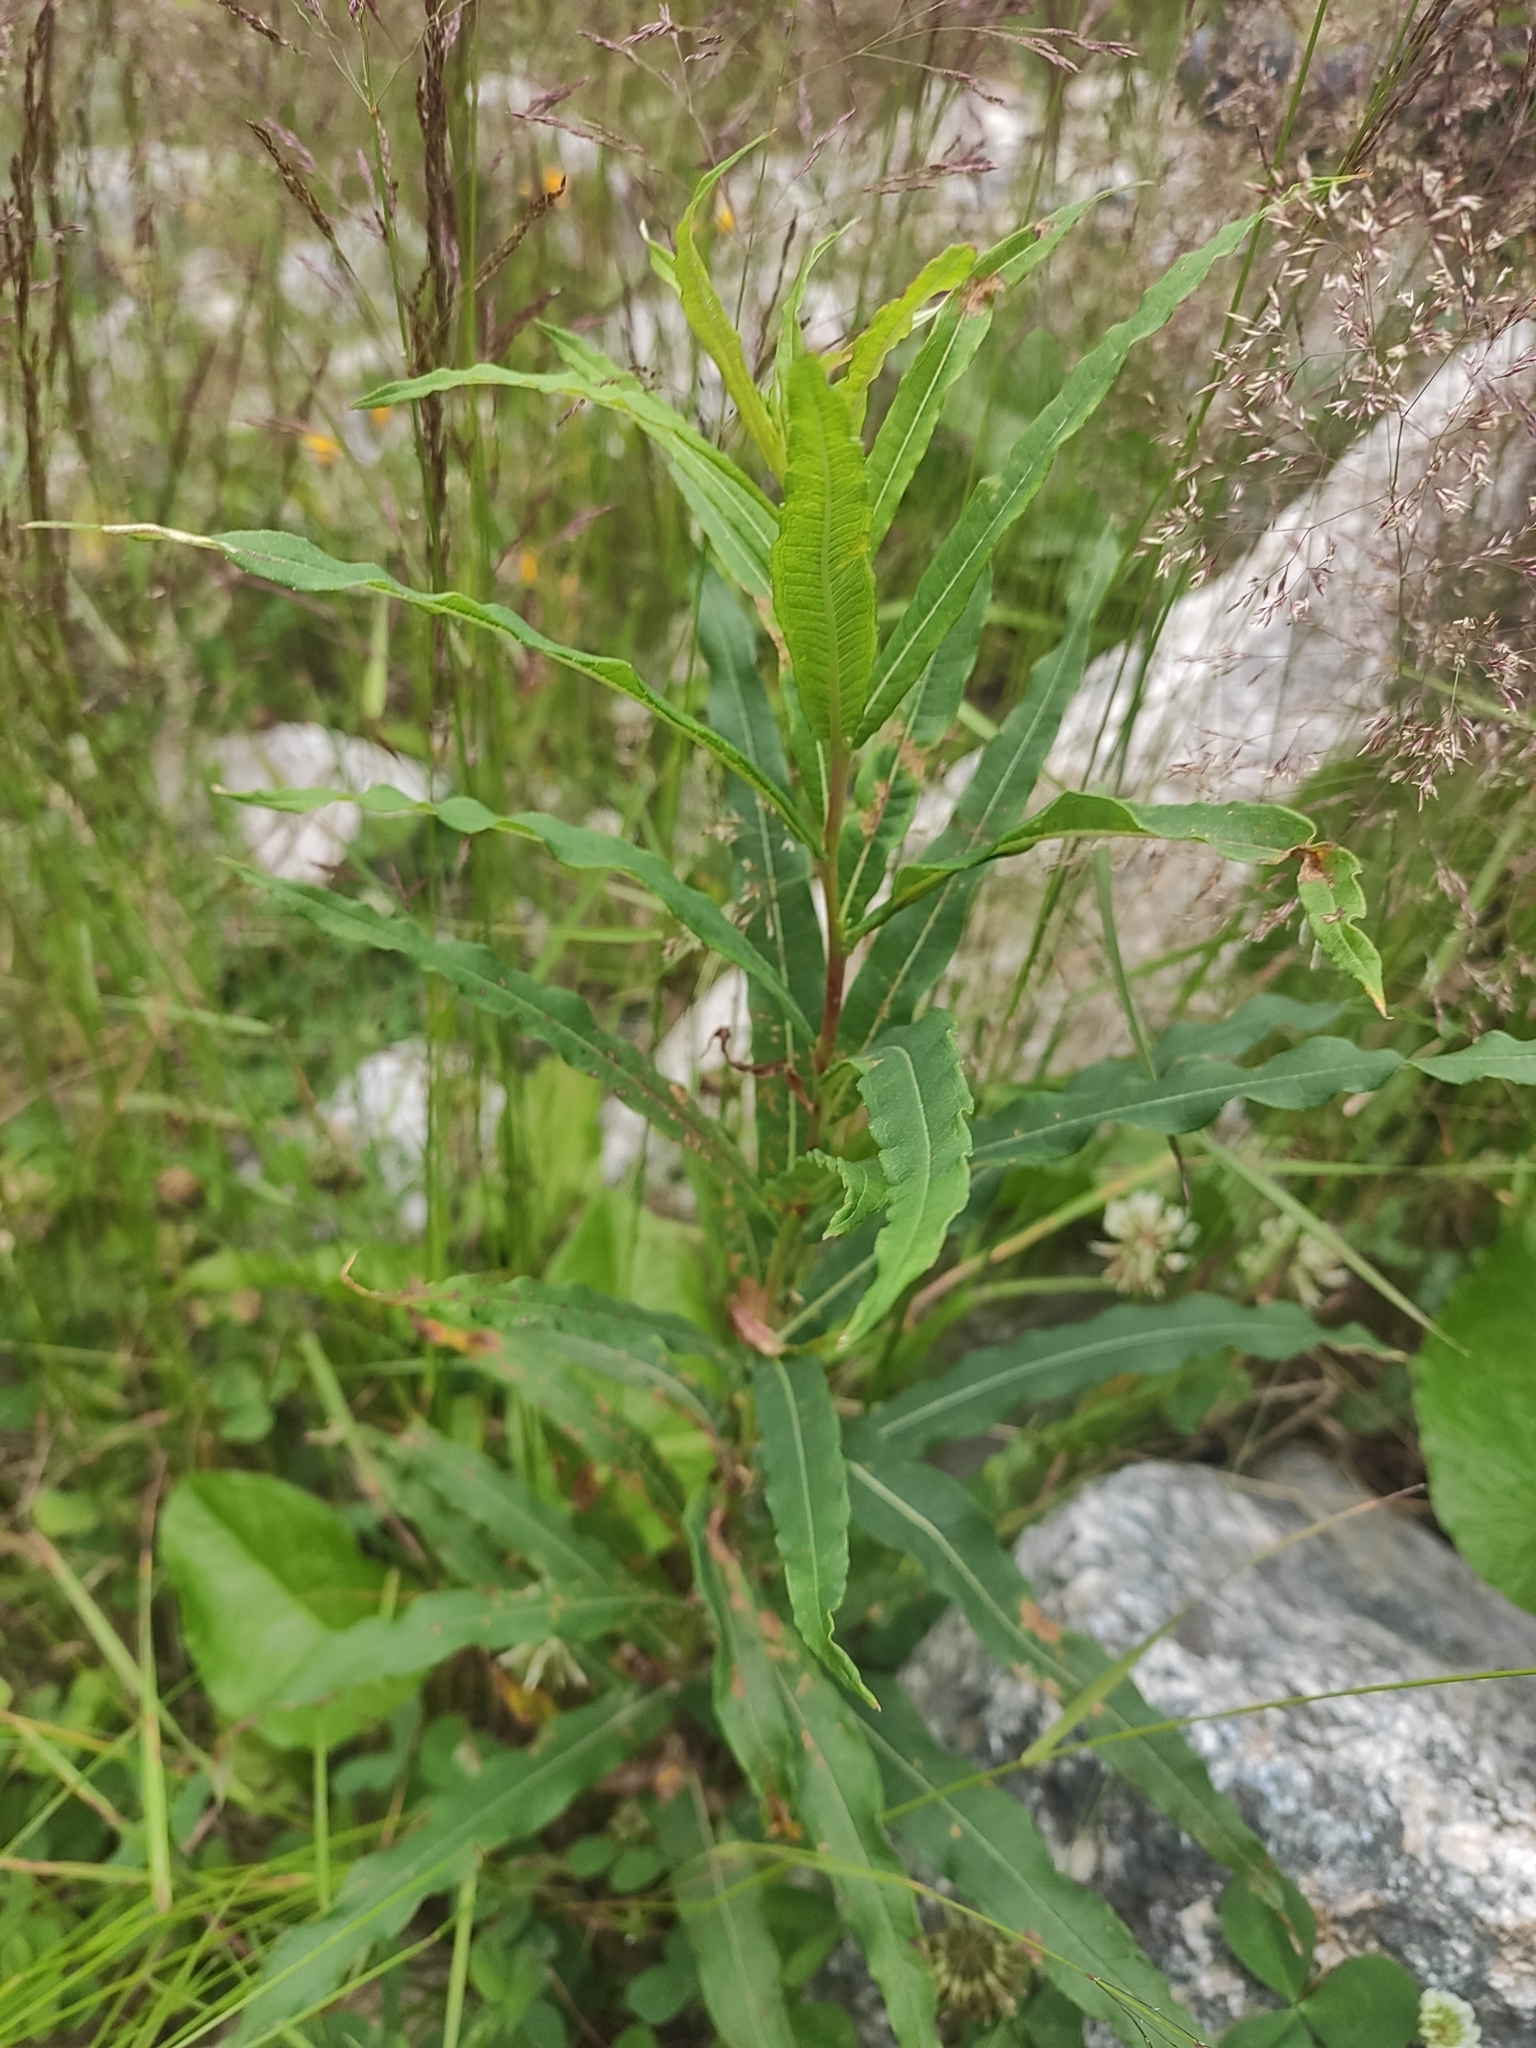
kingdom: Plantae
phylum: Tracheophyta
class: Magnoliopsida
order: Myrtales
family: Onagraceae
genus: Chamaenerion
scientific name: Chamaenerion angustifolium
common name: Fireweed
